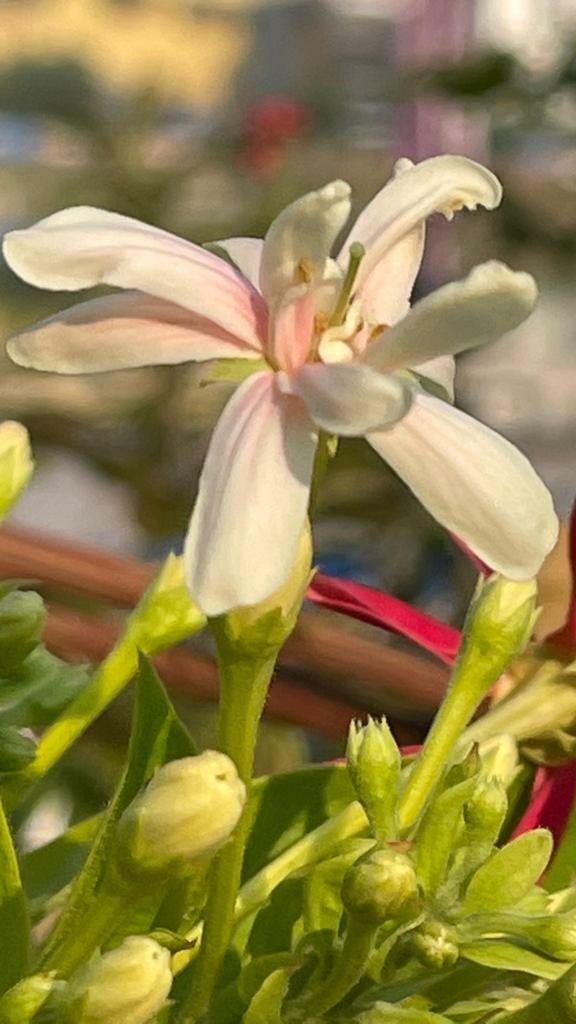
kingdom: Plantae
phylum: Tracheophyta
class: Magnoliopsida
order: Myrtales
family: Combretaceae
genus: Combretum
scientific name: Combretum indicum
